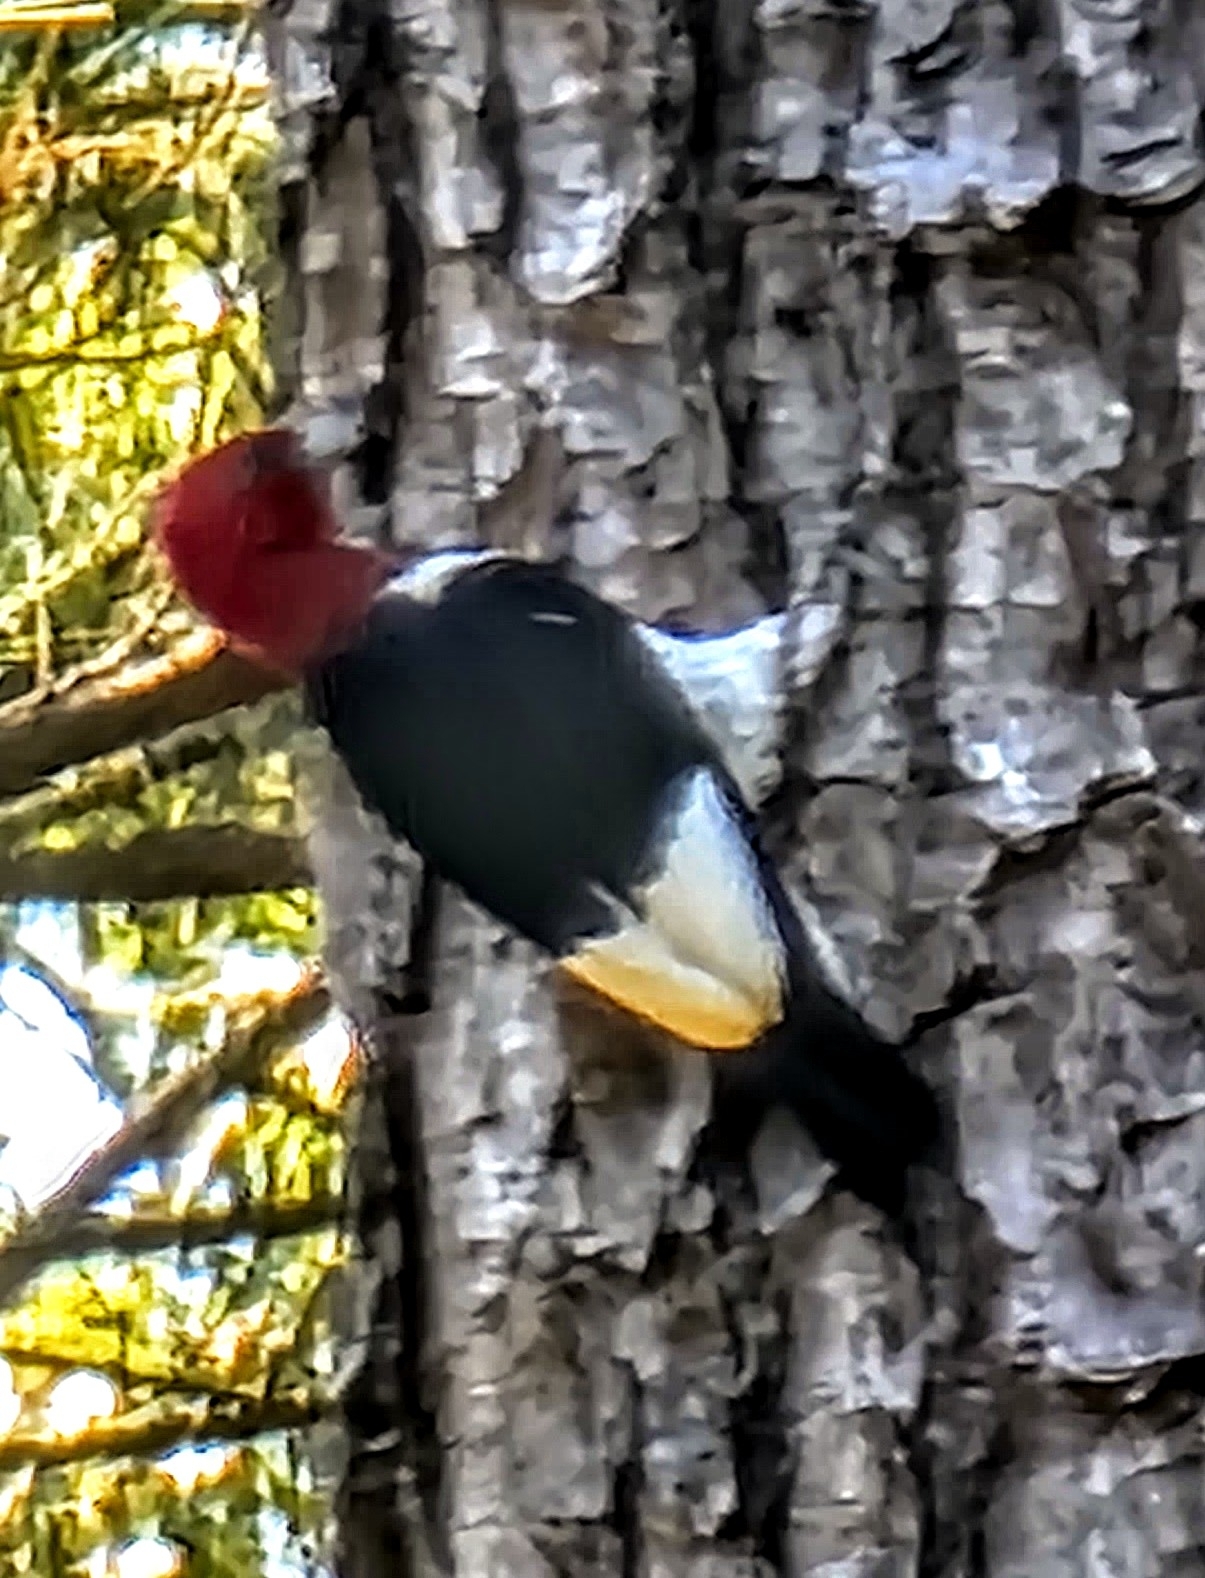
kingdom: Animalia
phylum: Chordata
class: Aves
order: Piciformes
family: Picidae
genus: Melanerpes
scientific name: Melanerpes erythrocephalus
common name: Red-headed woodpecker
